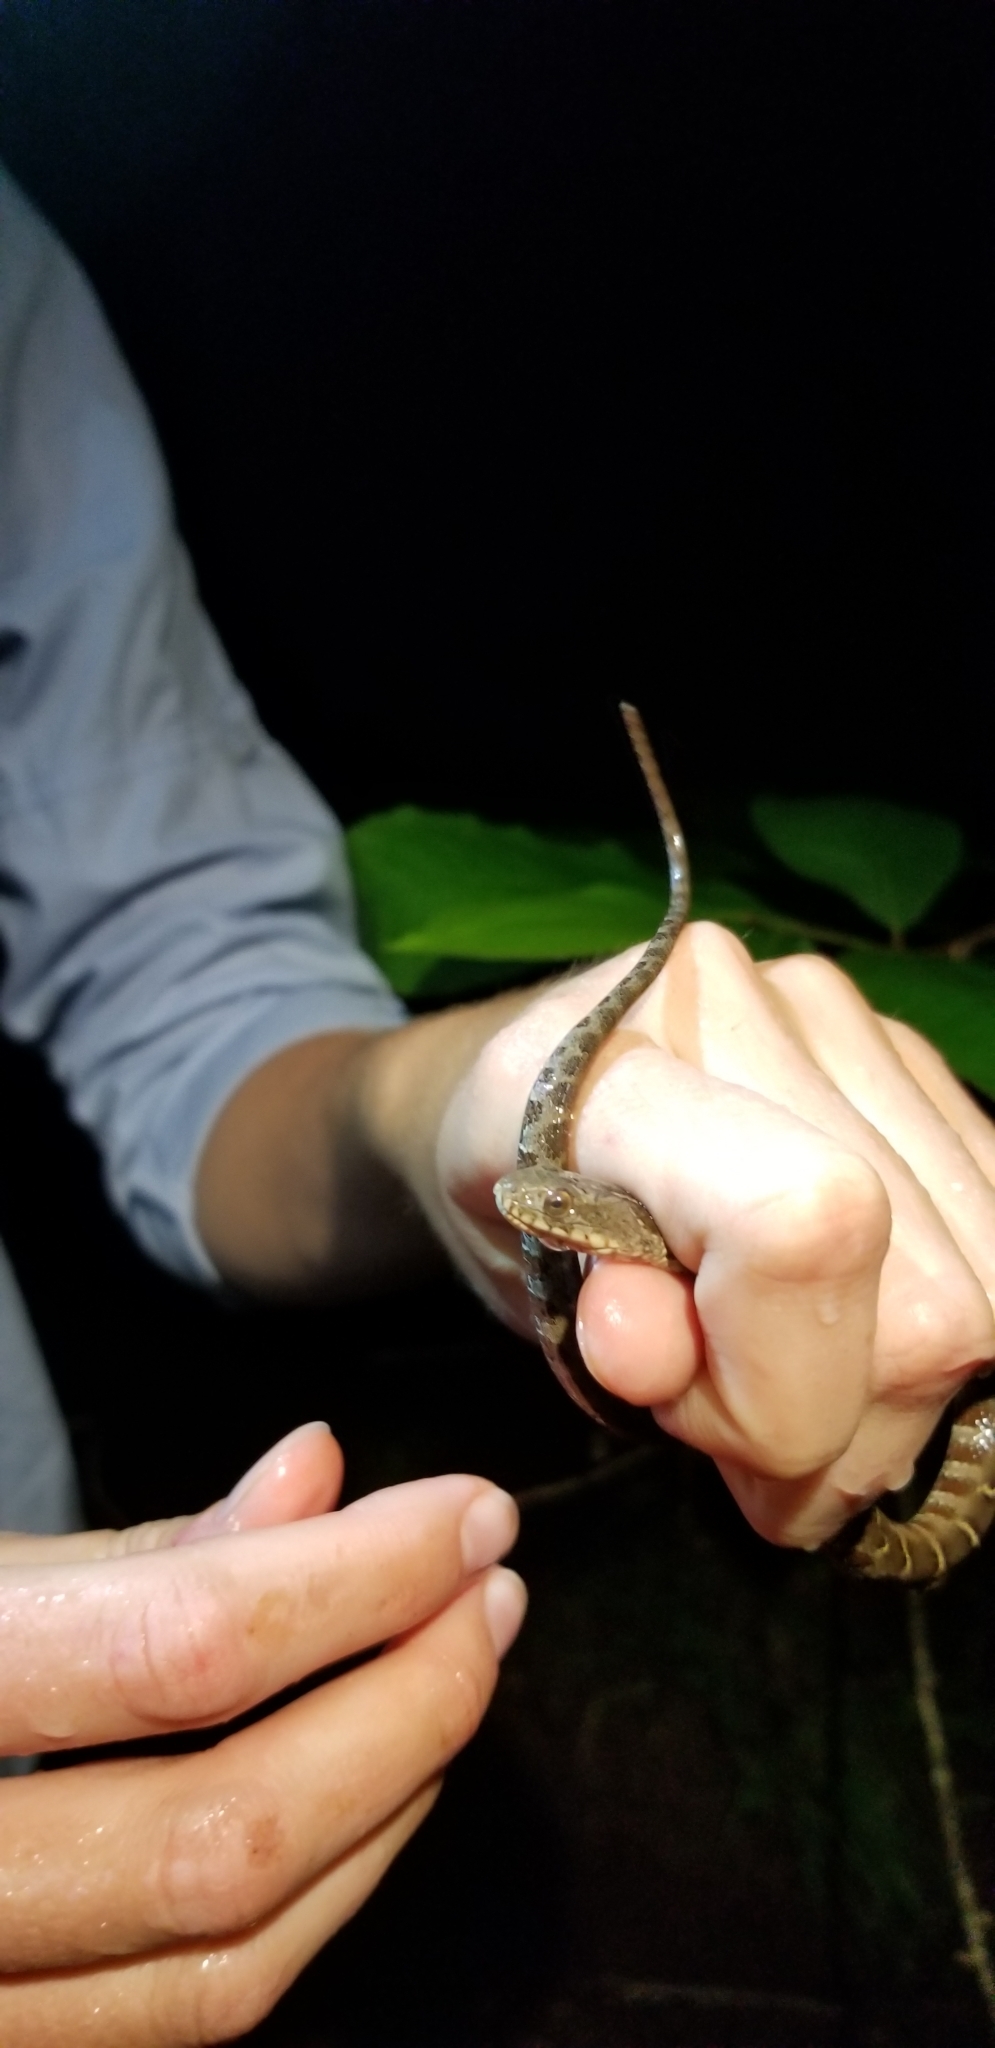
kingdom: Animalia
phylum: Chordata
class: Squamata
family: Colubridae
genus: Nerodia
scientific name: Nerodia sipedon
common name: Northern water snake
